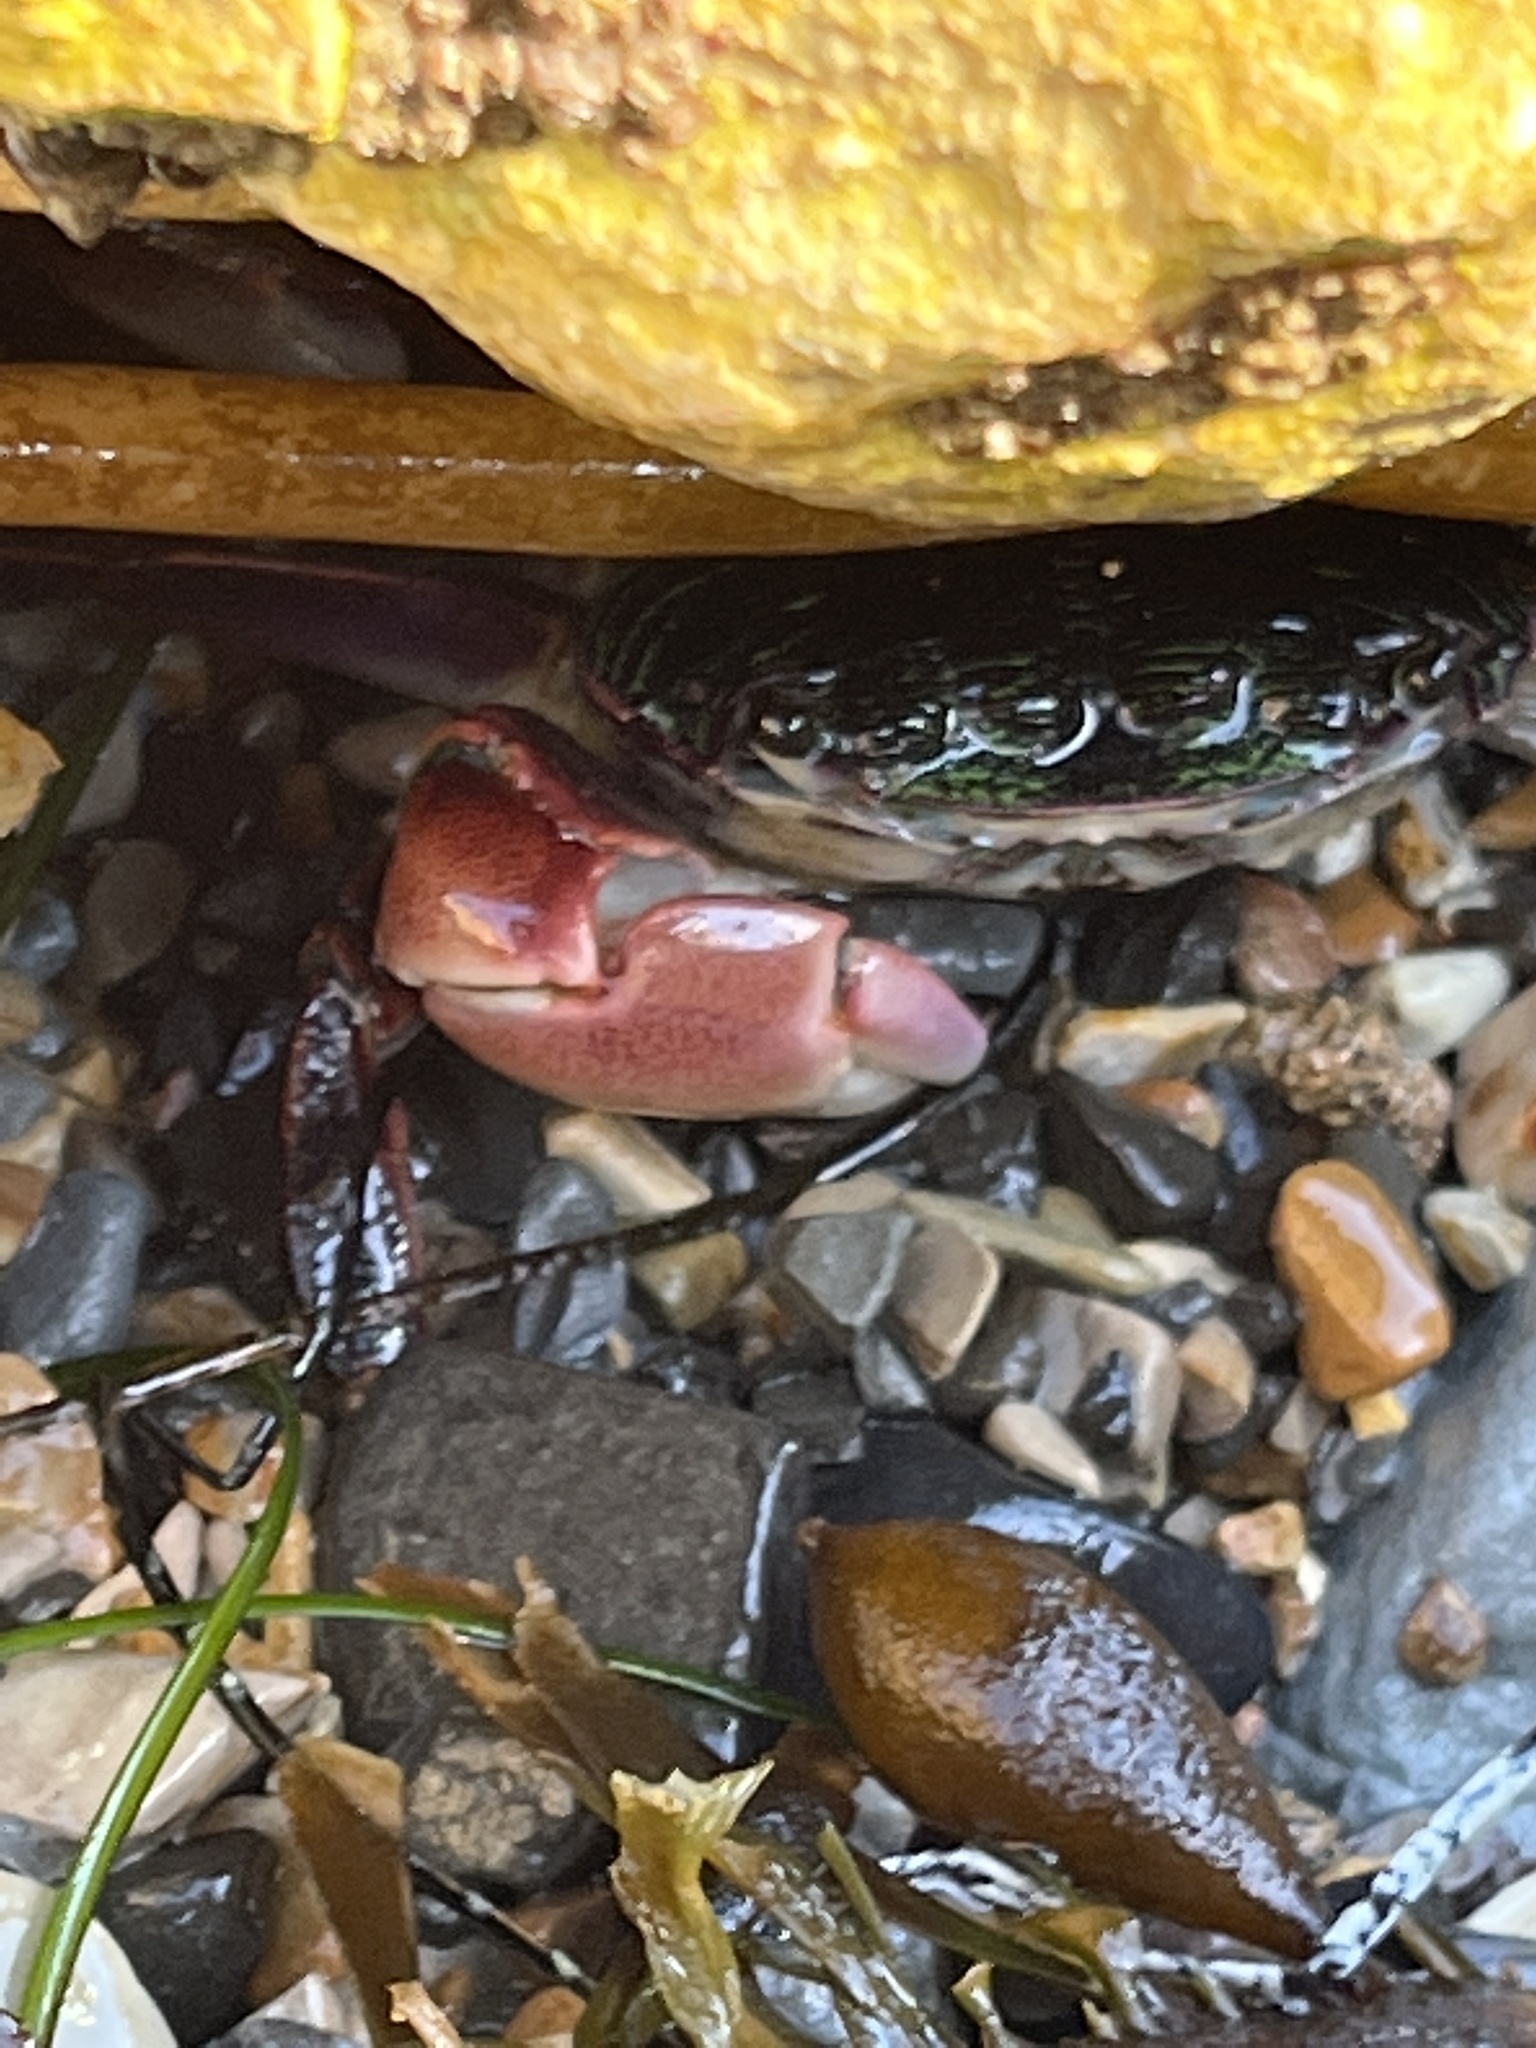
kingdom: Animalia
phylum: Arthropoda
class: Malacostraca
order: Decapoda
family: Grapsidae
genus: Pachygrapsus
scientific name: Pachygrapsus crassipes
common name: Striped shore crab
